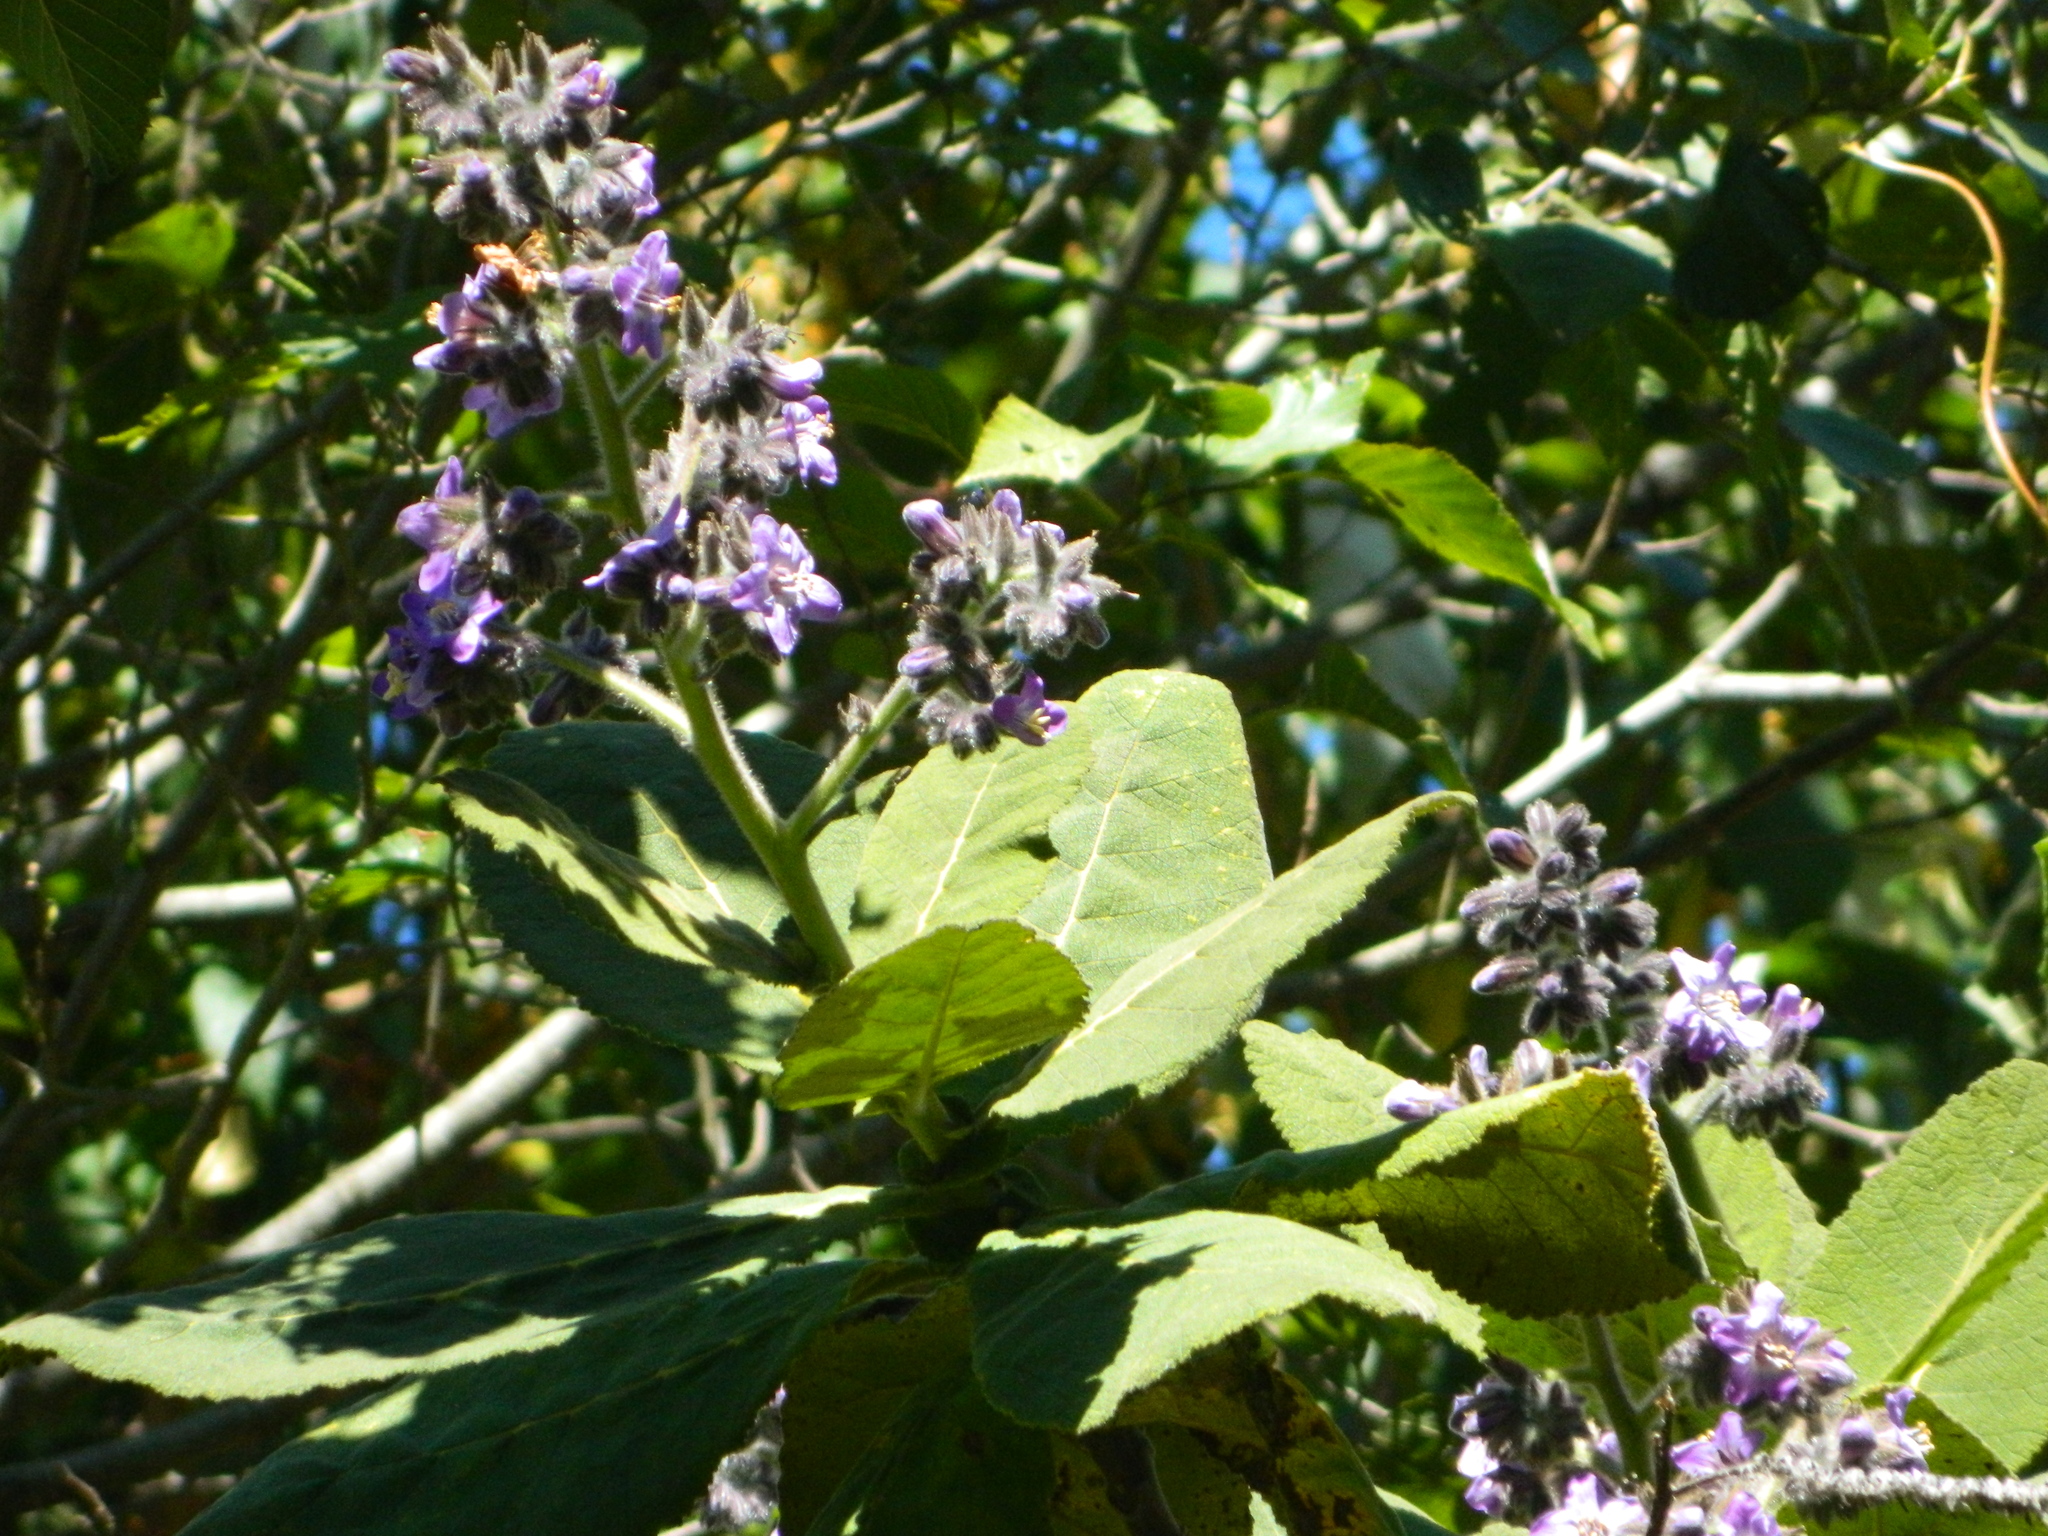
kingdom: Plantae
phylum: Tracheophyta
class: Magnoliopsida
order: Boraginales
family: Namaceae
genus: Wigandia
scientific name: Wigandia urens
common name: Caracus wigandia
